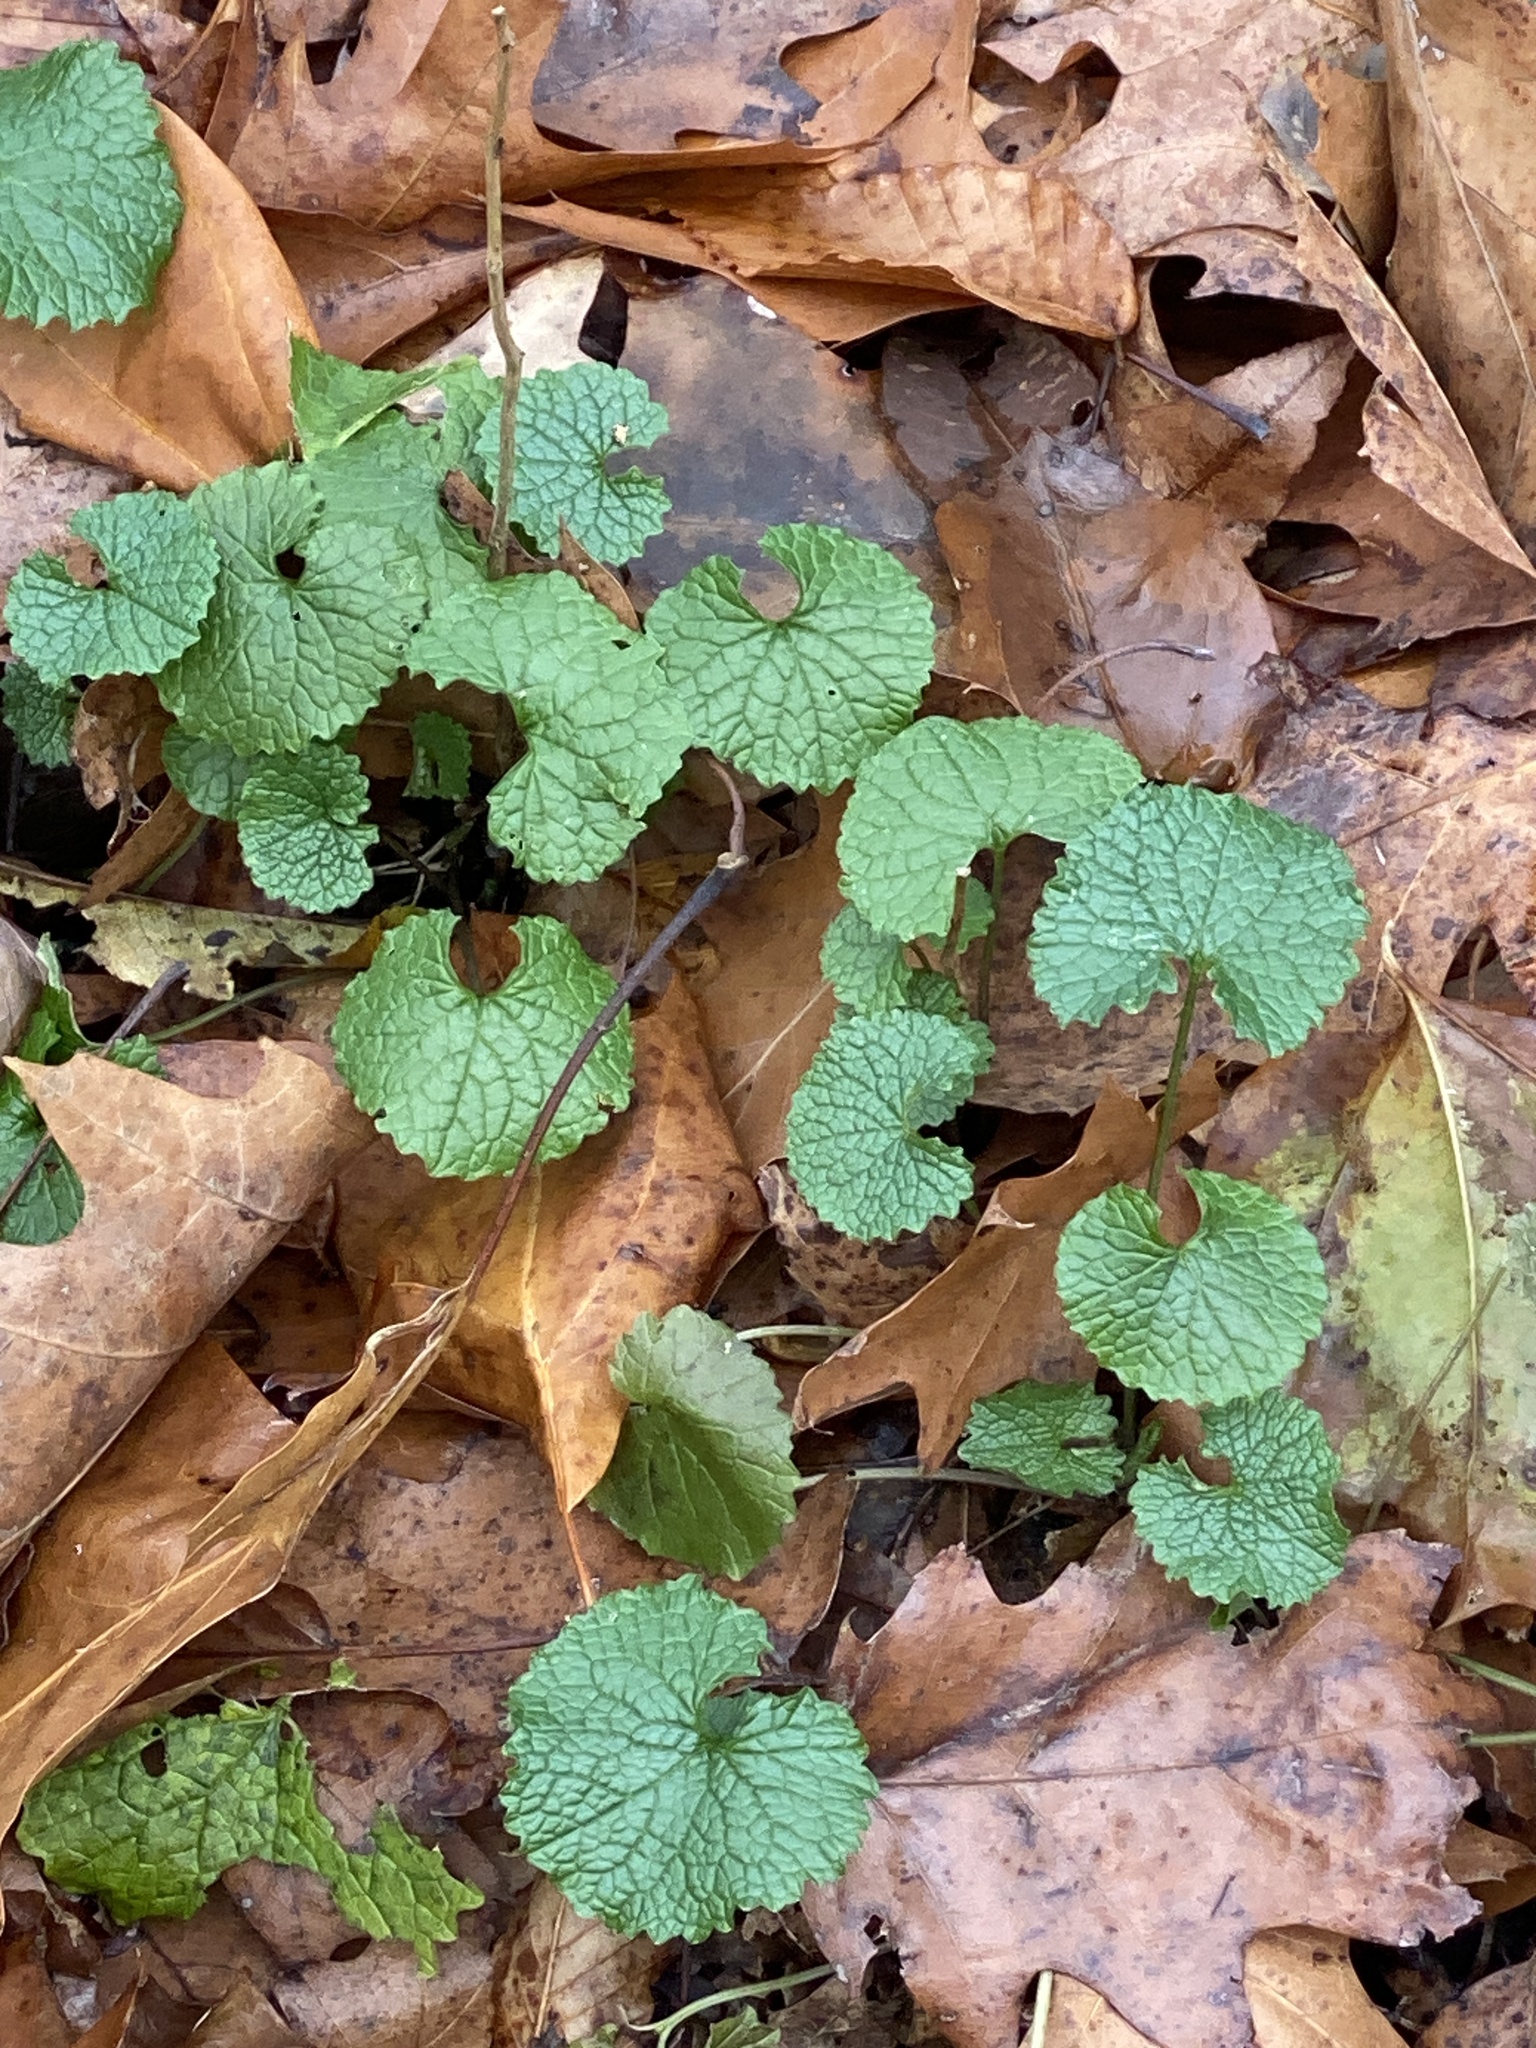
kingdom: Plantae
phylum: Tracheophyta
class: Magnoliopsida
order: Brassicales
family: Brassicaceae
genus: Alliaria
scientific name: Alliaria petiolata
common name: Garlic mustard
